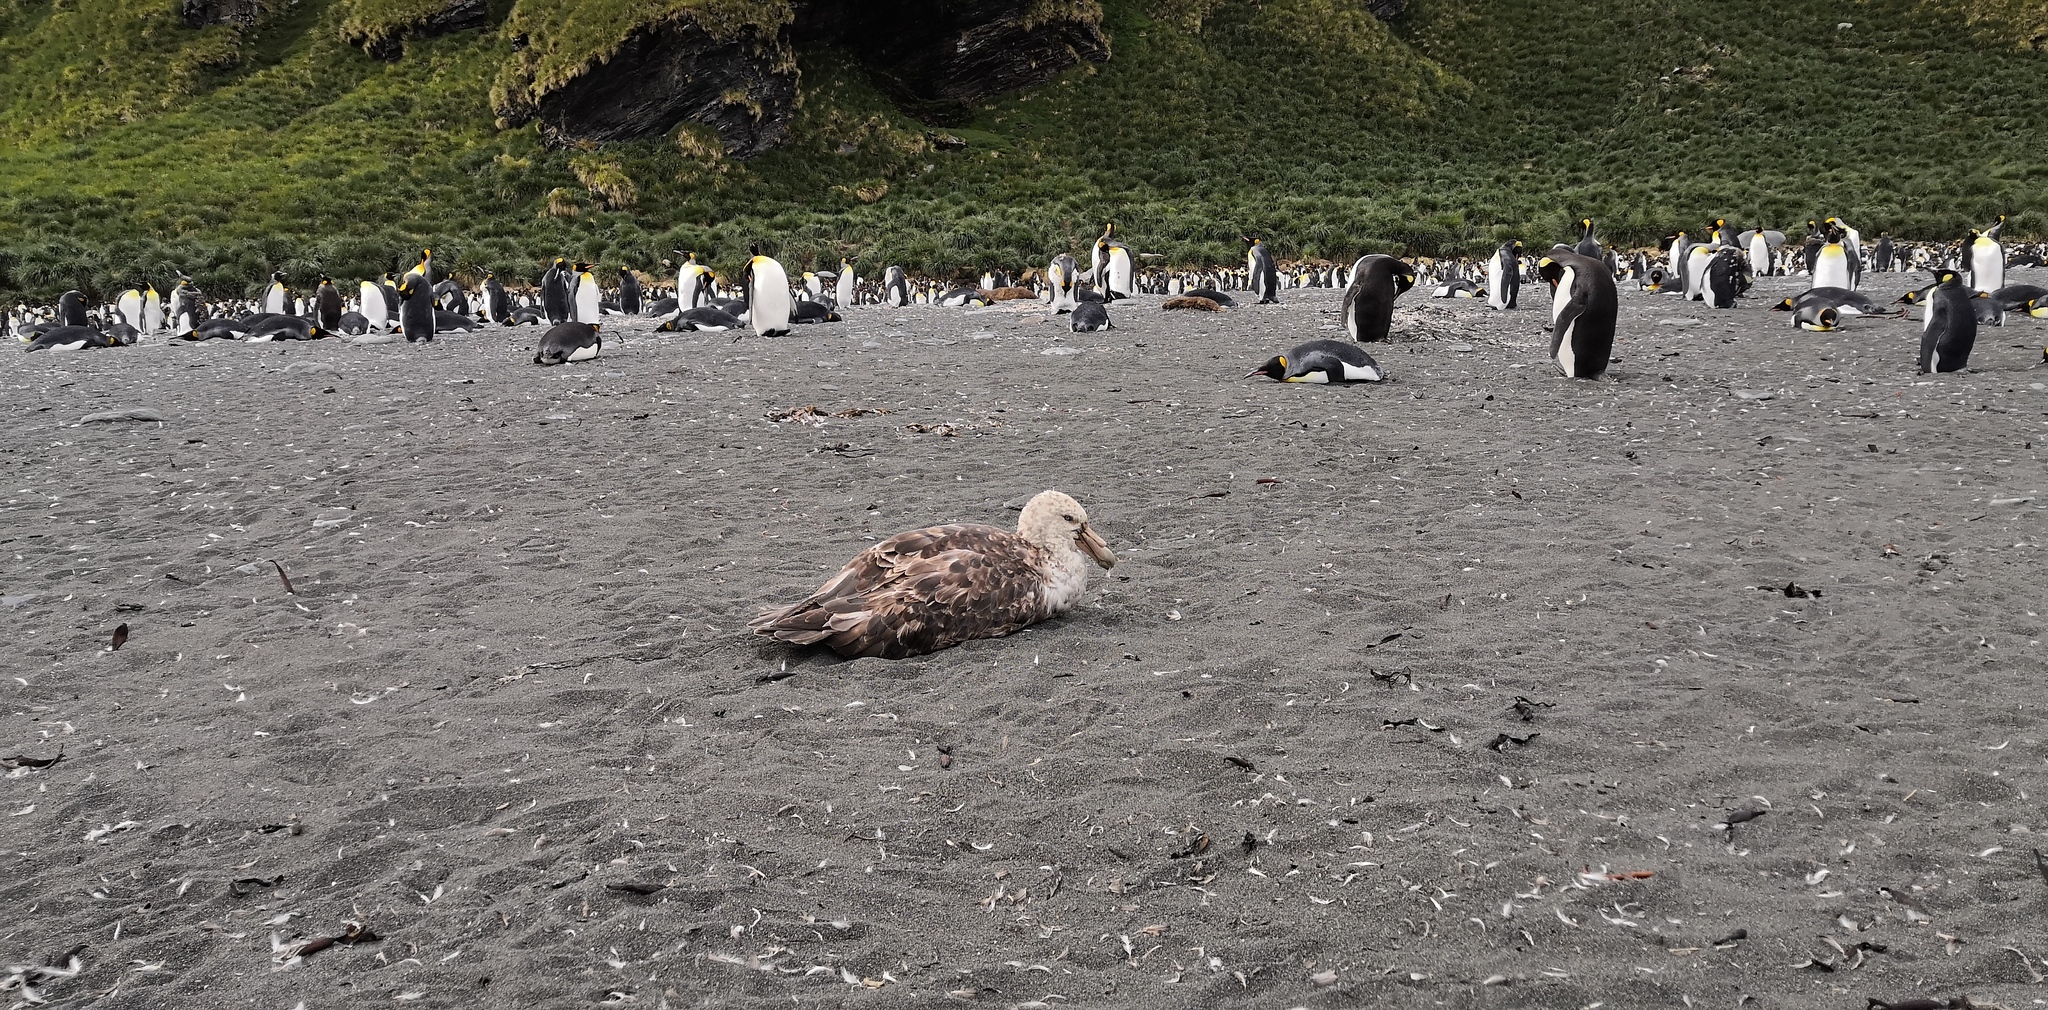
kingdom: Animalia
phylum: Chordata
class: Aves
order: Procellariiformes
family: Procellariidae
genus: Macronectes
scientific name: Macronectes giganteus
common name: Southern giant petrel
